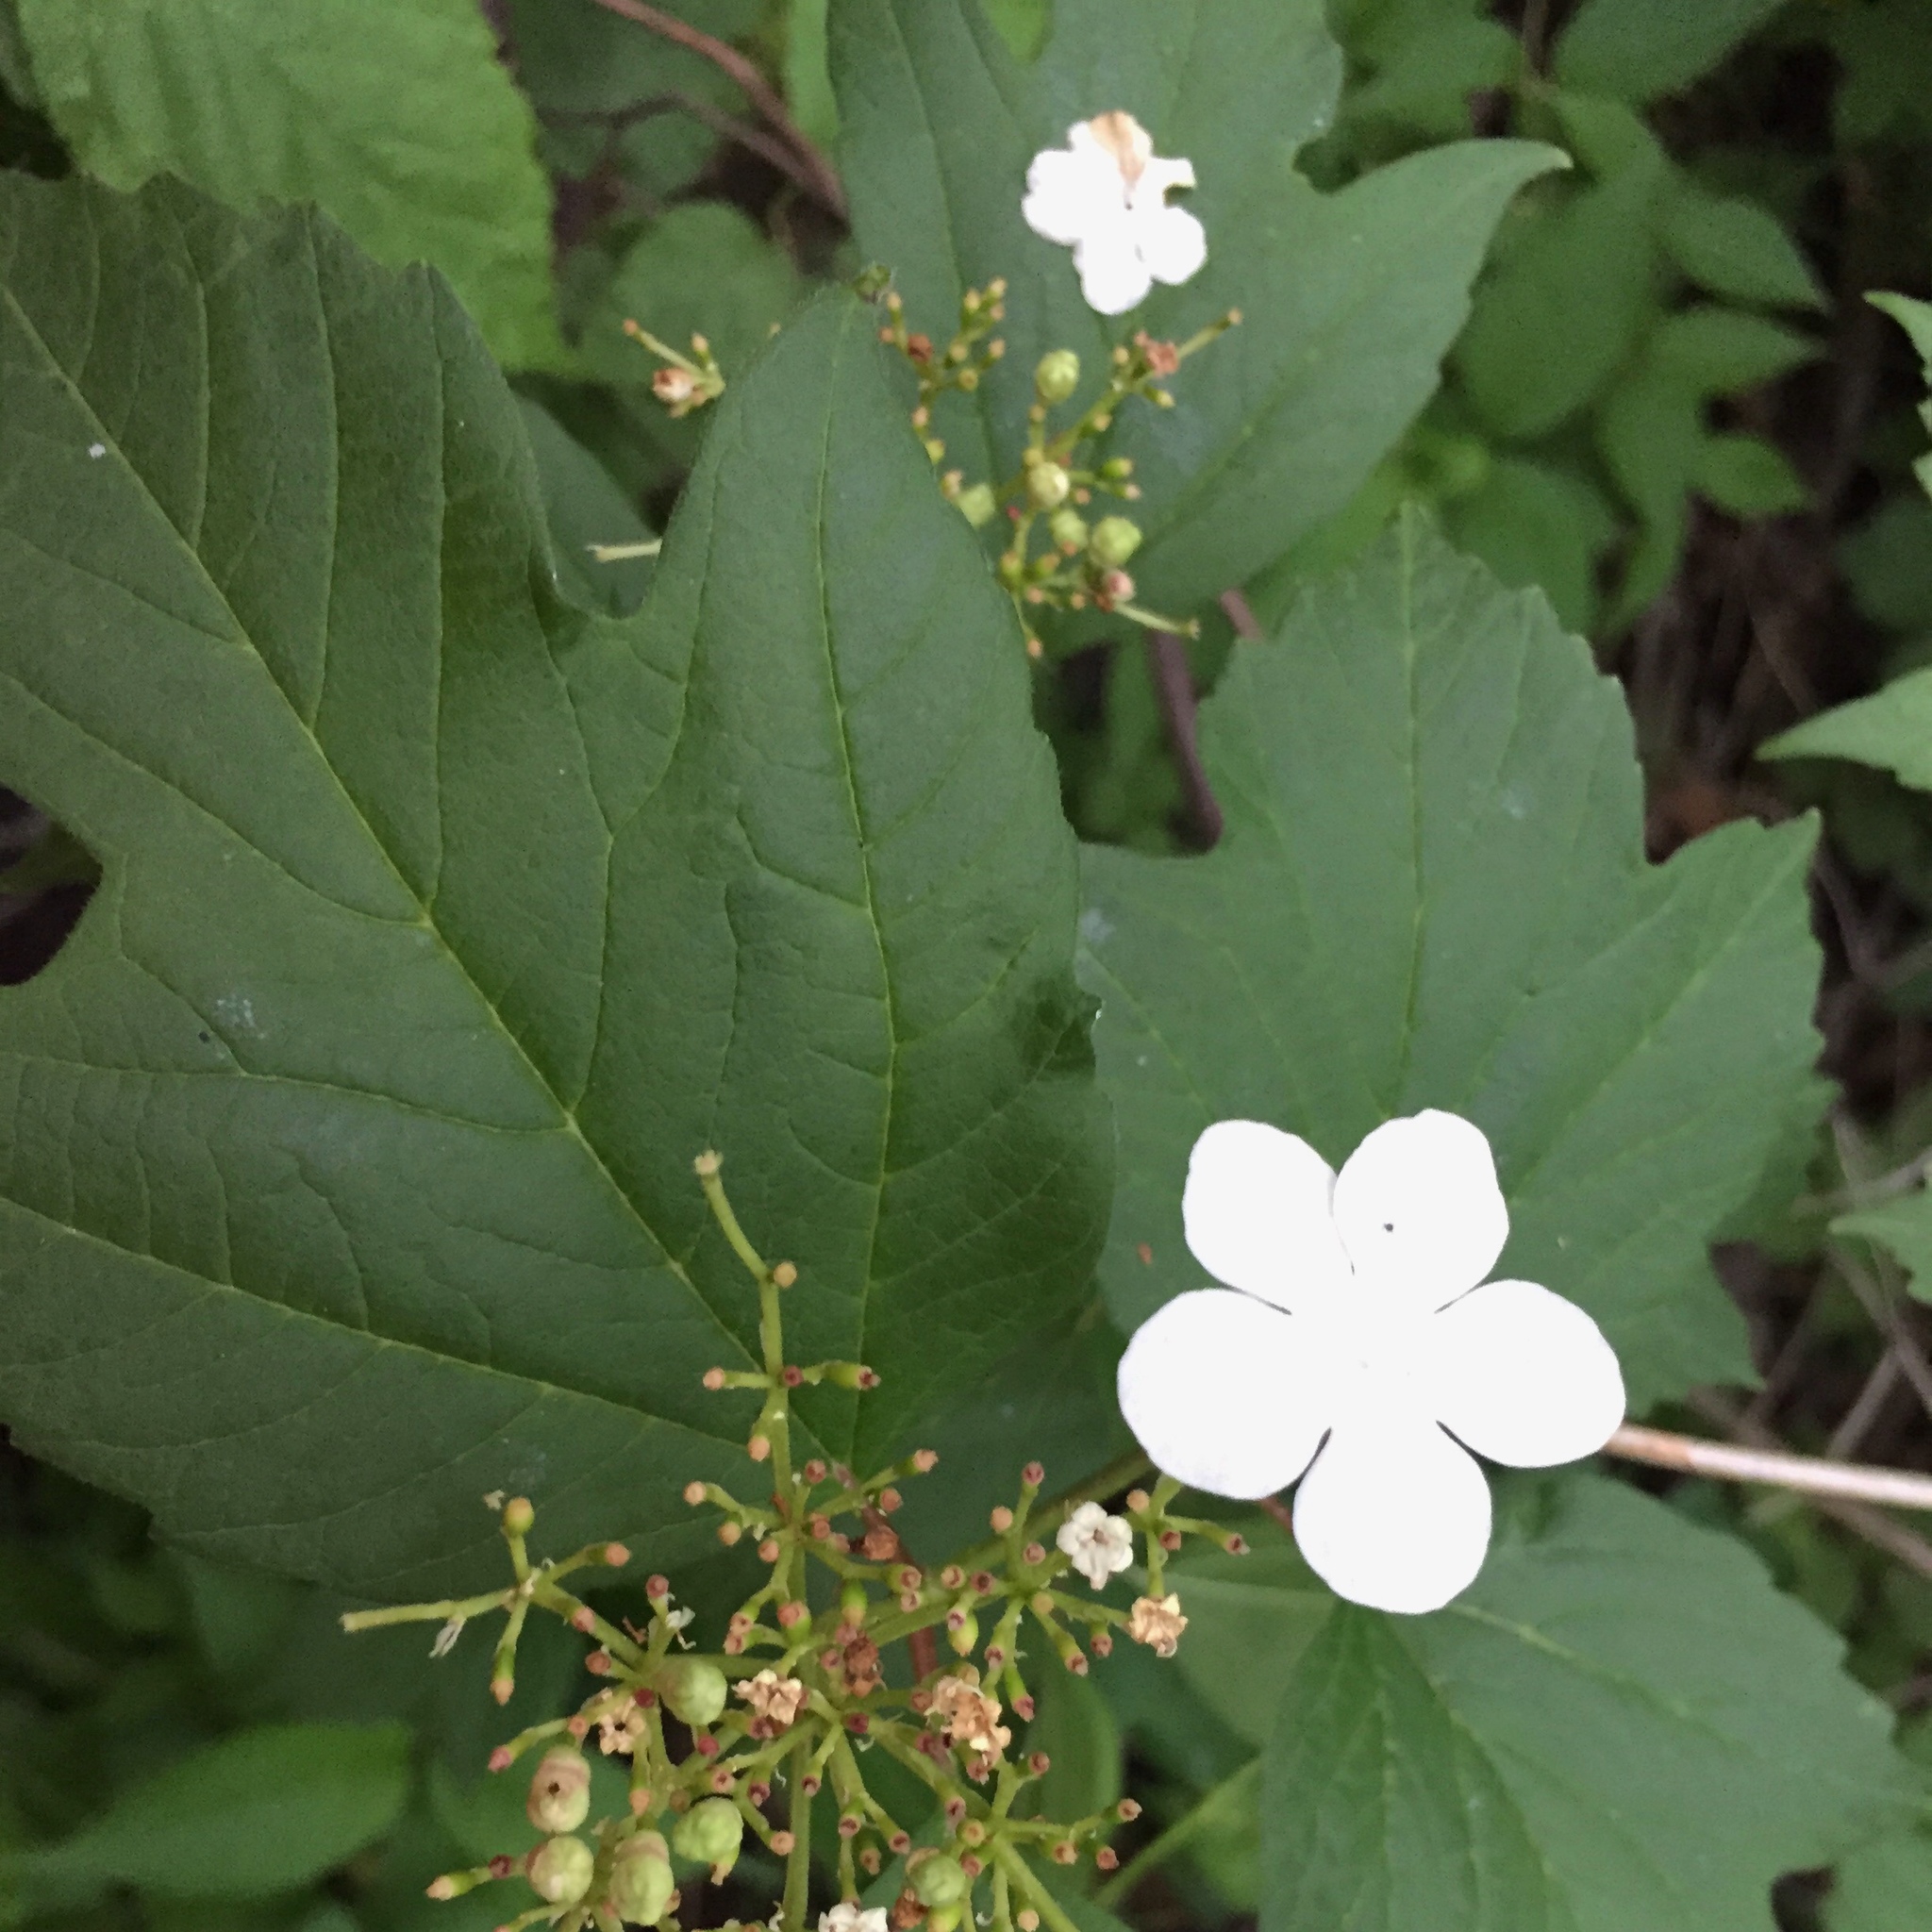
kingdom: Plantae
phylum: Tracheophyta
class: Magnoliopsida
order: Dipsacales
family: Viburnaceae
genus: Viburnum
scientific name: Viburnum trilobum
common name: American cranberrybush
